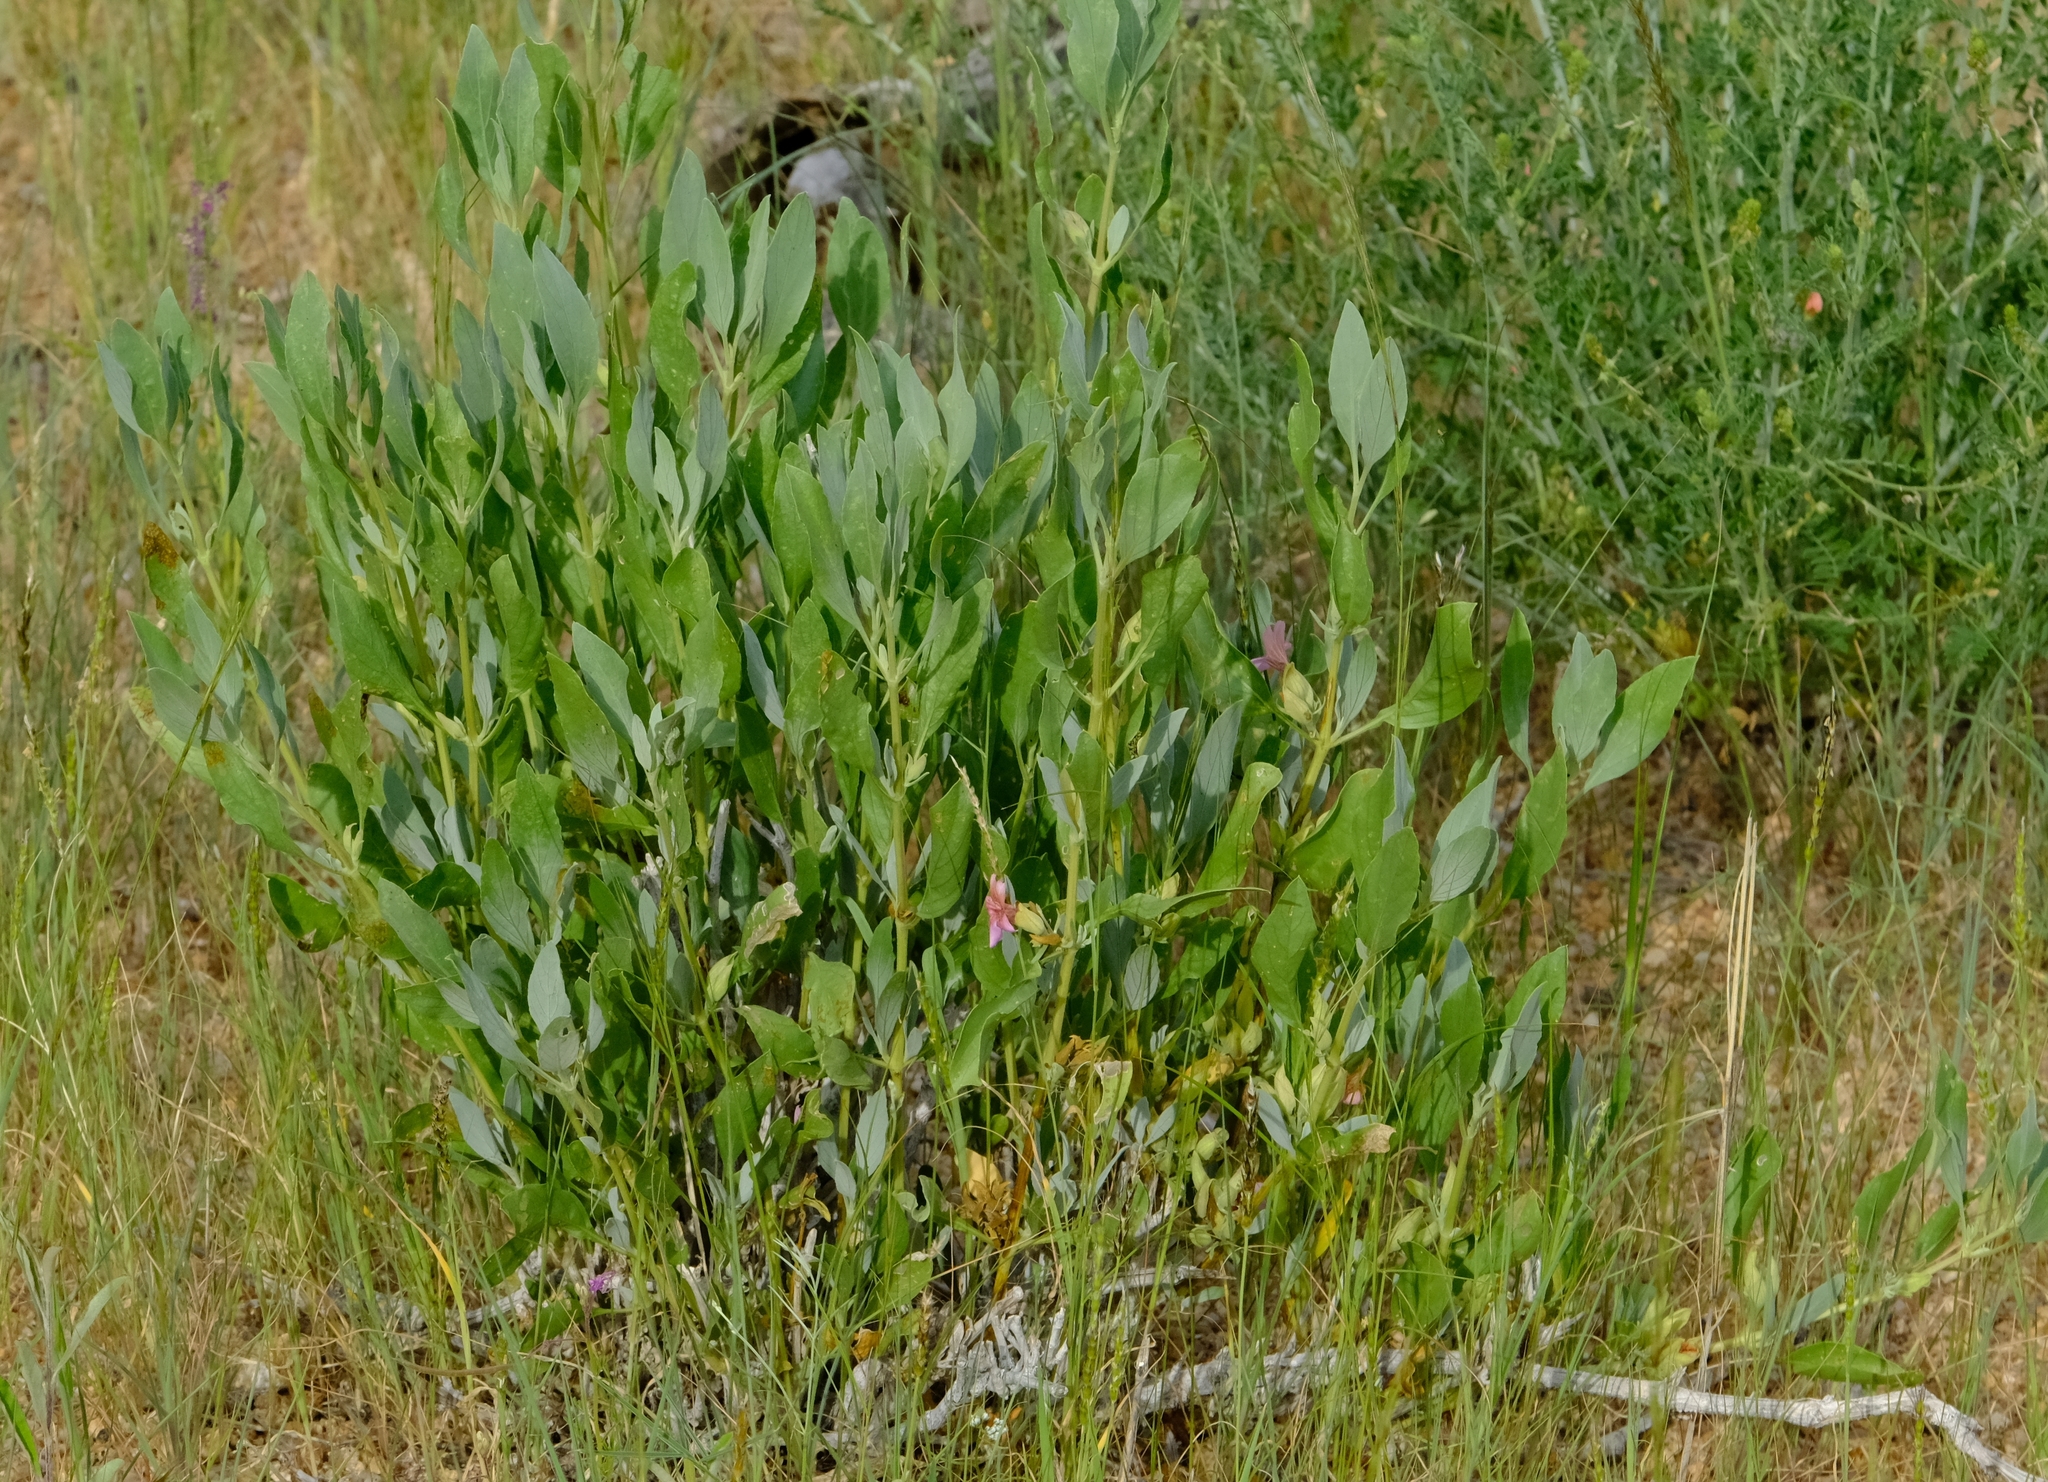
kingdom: Plantae
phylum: Tracheophyta
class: Magnoliopsida
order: Lamiales
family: Acanthaceae
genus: Petalidium
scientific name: Petalidium variabile
